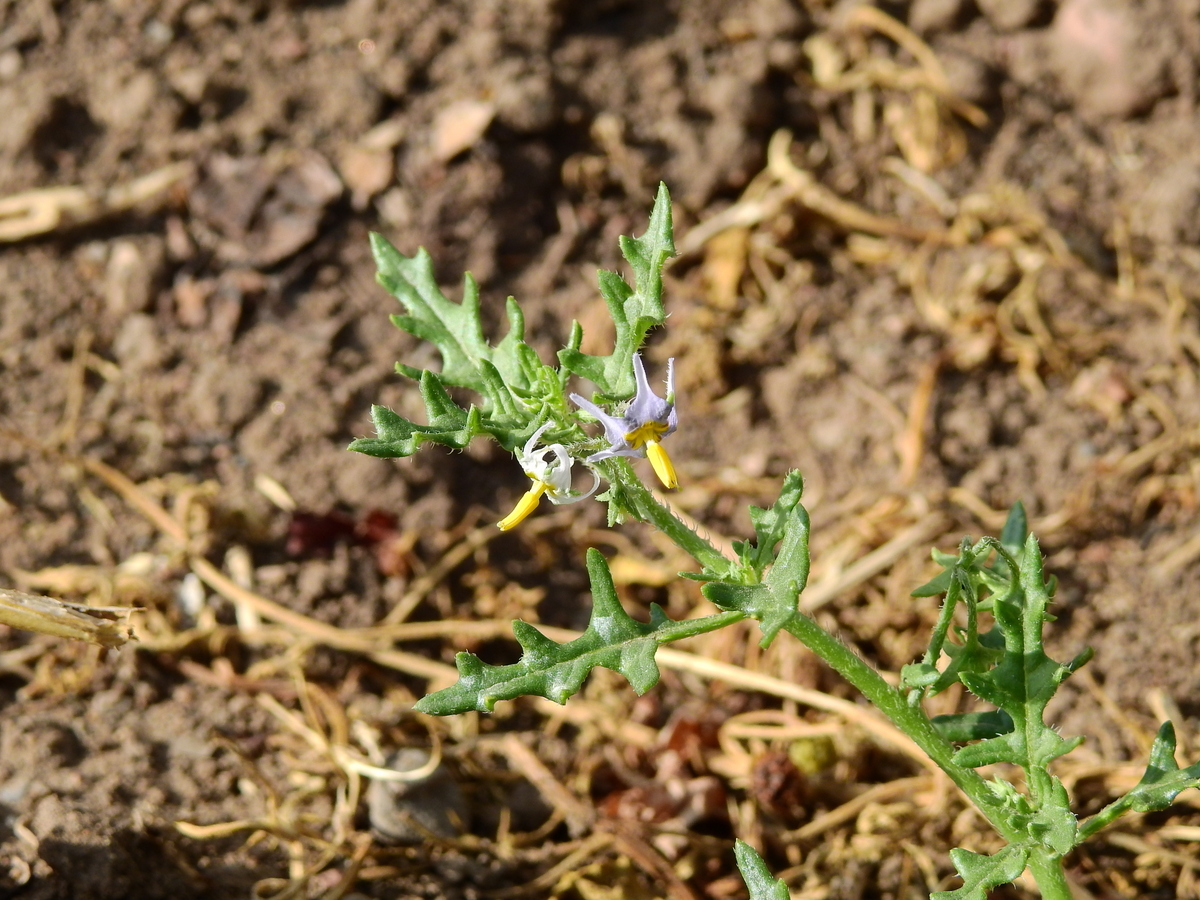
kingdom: Plantae
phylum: Tracheophyta
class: Magnoliopsida
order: Solanales
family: Solanaceae
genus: Solanum
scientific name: Solanum triflorum
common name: Small nightshade
